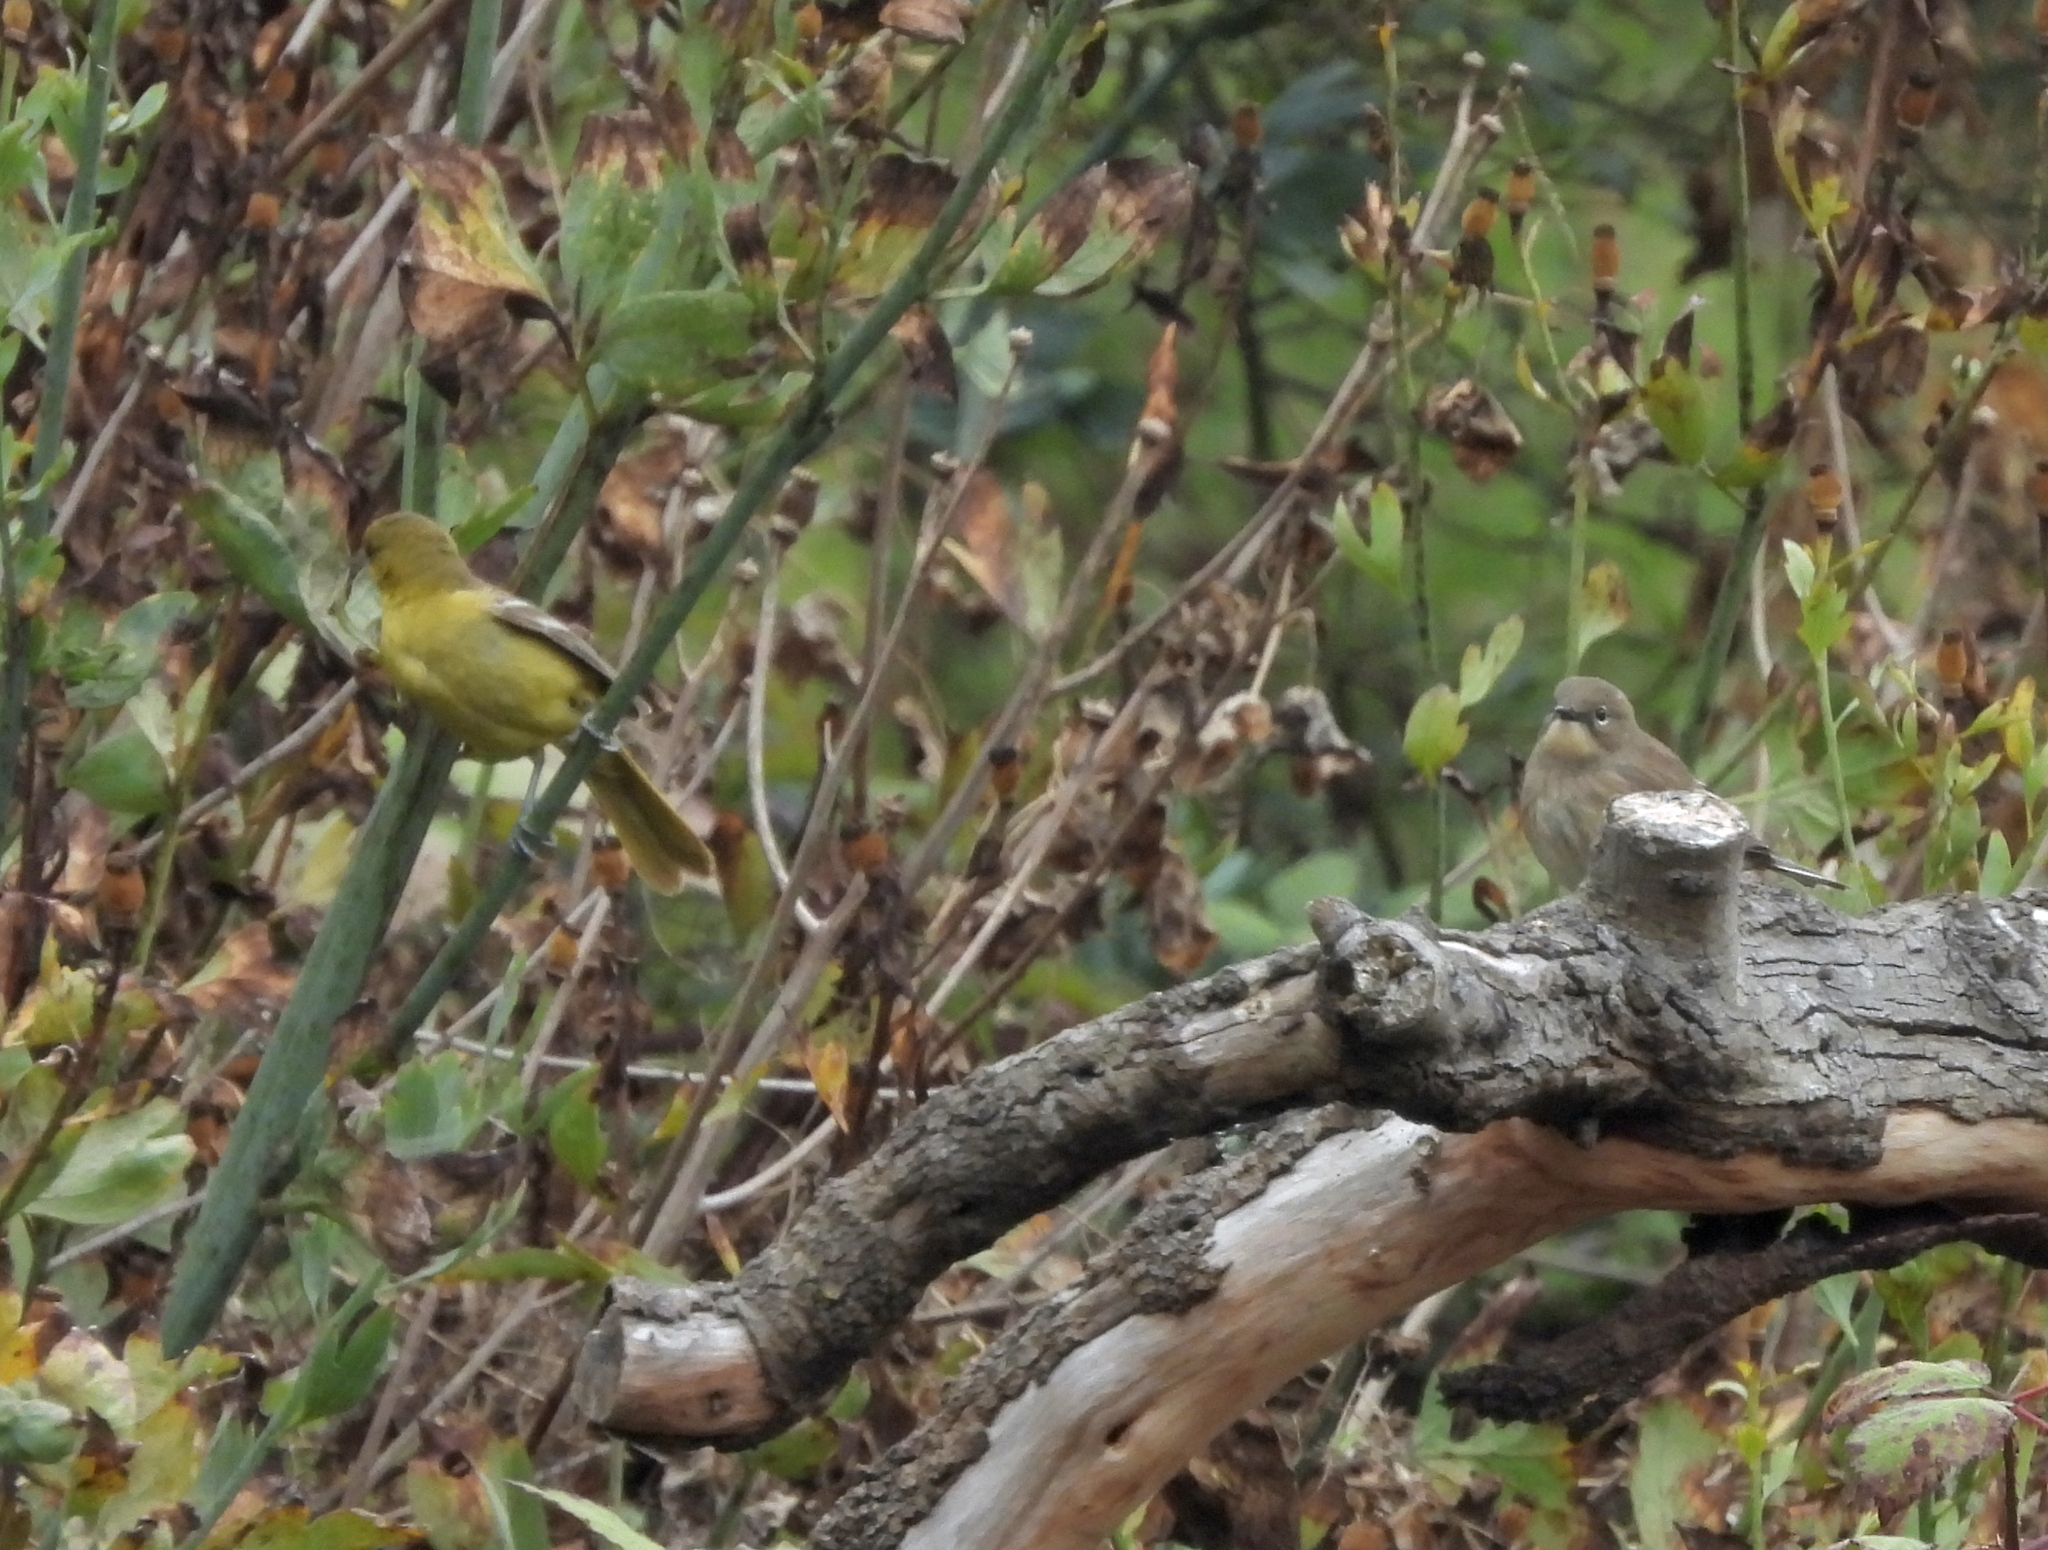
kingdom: Animalia
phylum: Chordata
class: Aves
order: Passeriformes
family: Parulidae
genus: Setophaga
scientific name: Setophaga auduboni
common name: Audubon's warbler
